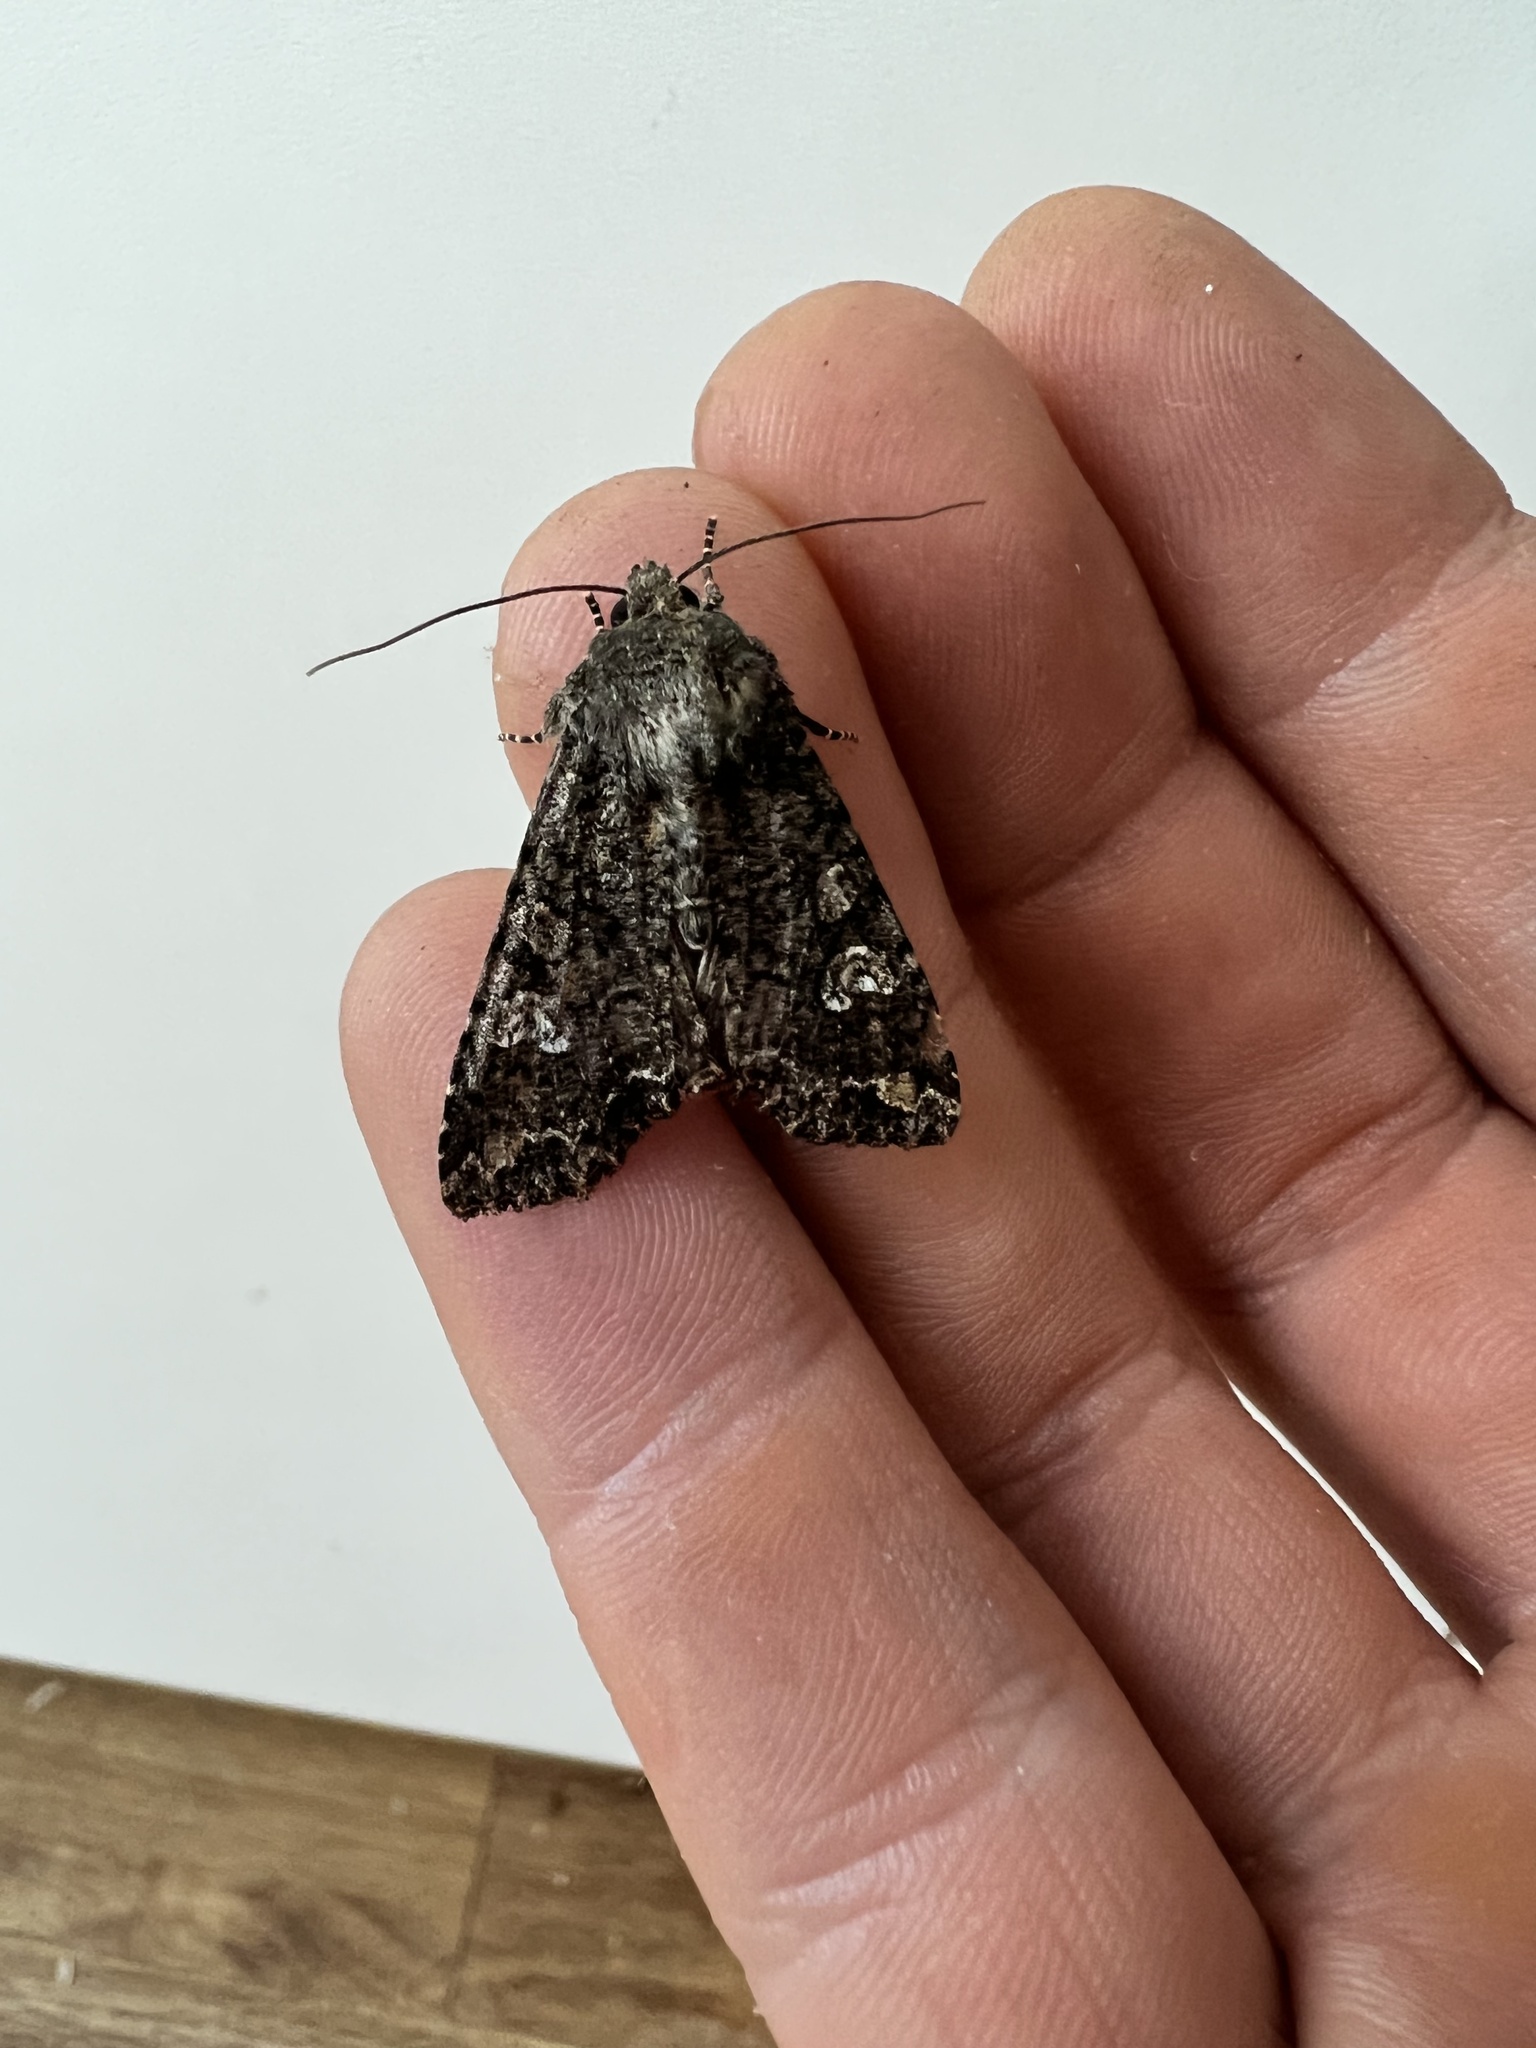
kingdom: Animalia
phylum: Arthropoda
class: Insecta
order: Lepidoptera
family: Noctuidae
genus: Mamestra
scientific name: Mamestra brassicae
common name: Cabbage moth
